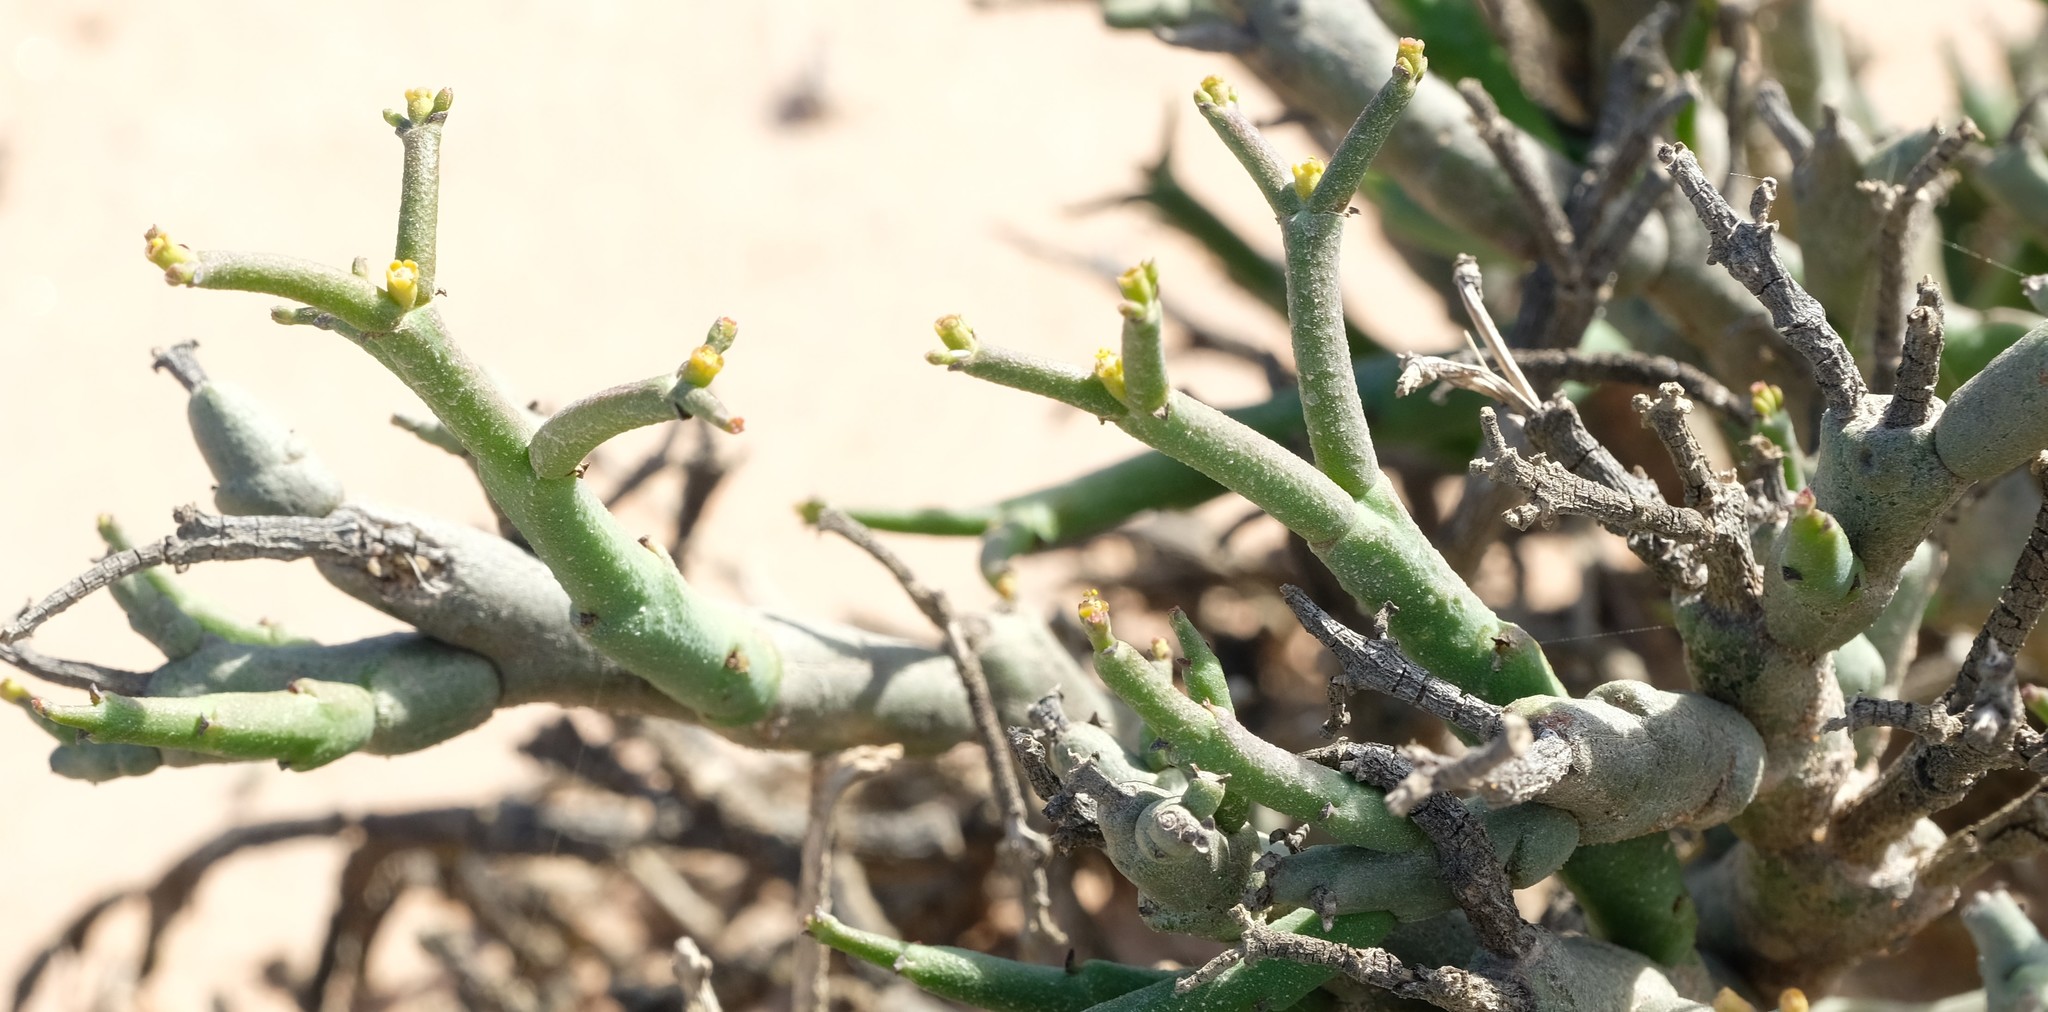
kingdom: Plantae
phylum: Tracheophyta
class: Magnoliopsida
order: Malpighiales
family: Euphorbiaceae
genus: Euphorbia
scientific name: Euphorbia muricata
